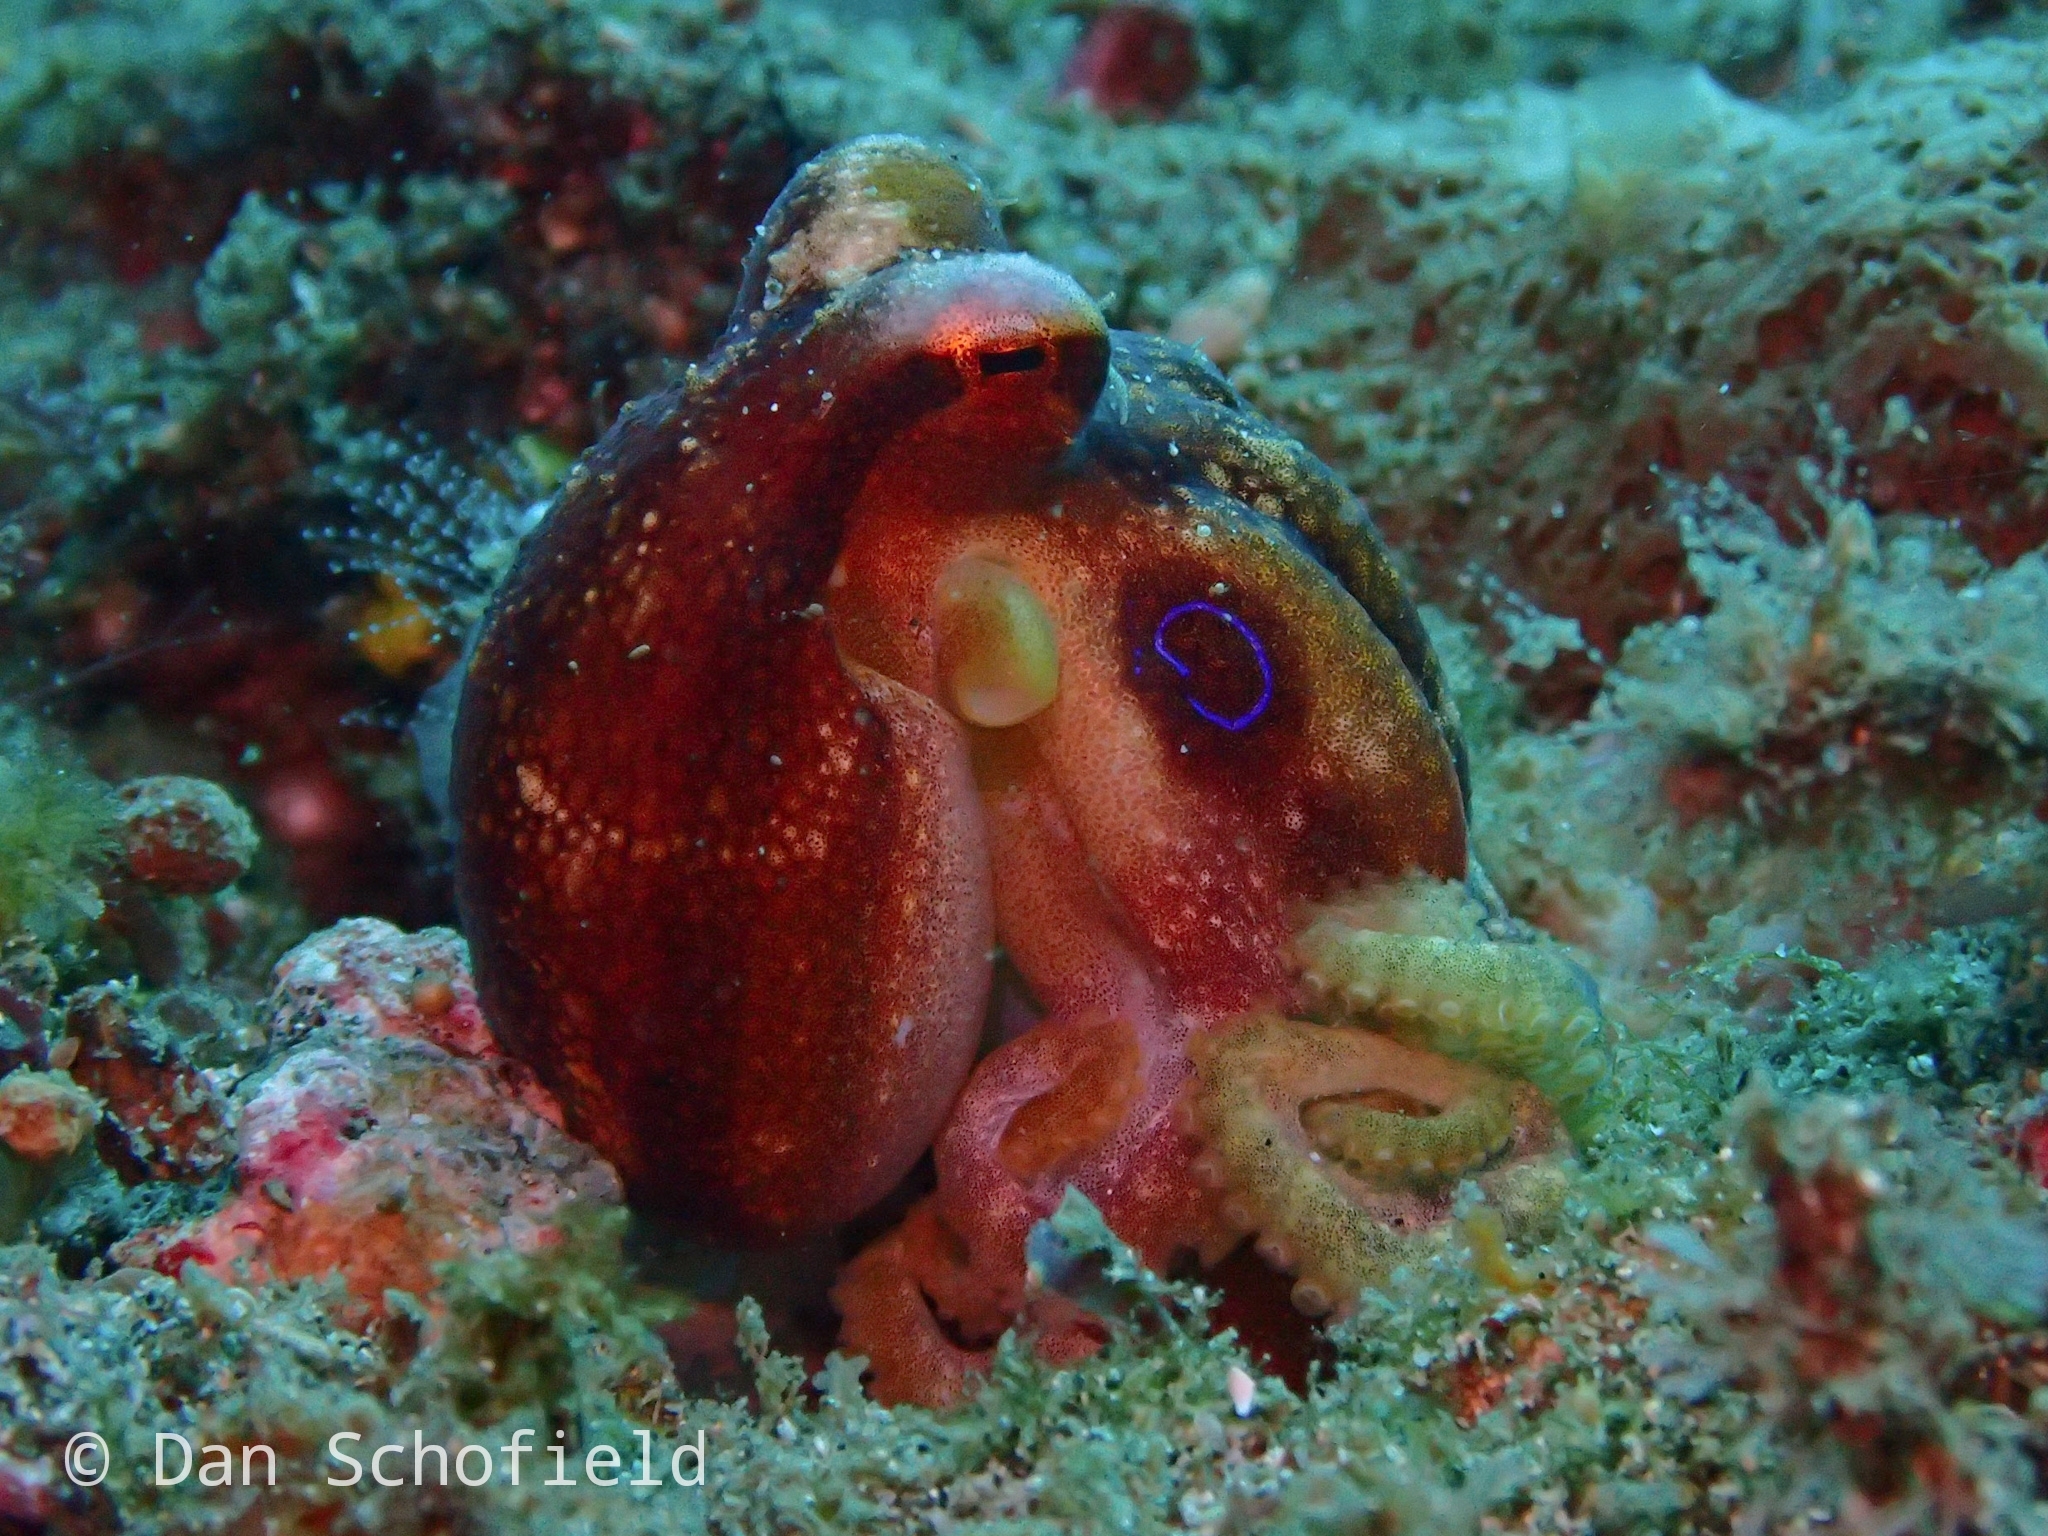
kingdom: Animalia
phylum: Mollusca
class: Cephalopoda
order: Octopoda
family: Octopodidae
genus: Amphioctopus
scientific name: Amphioctopus siamensis
